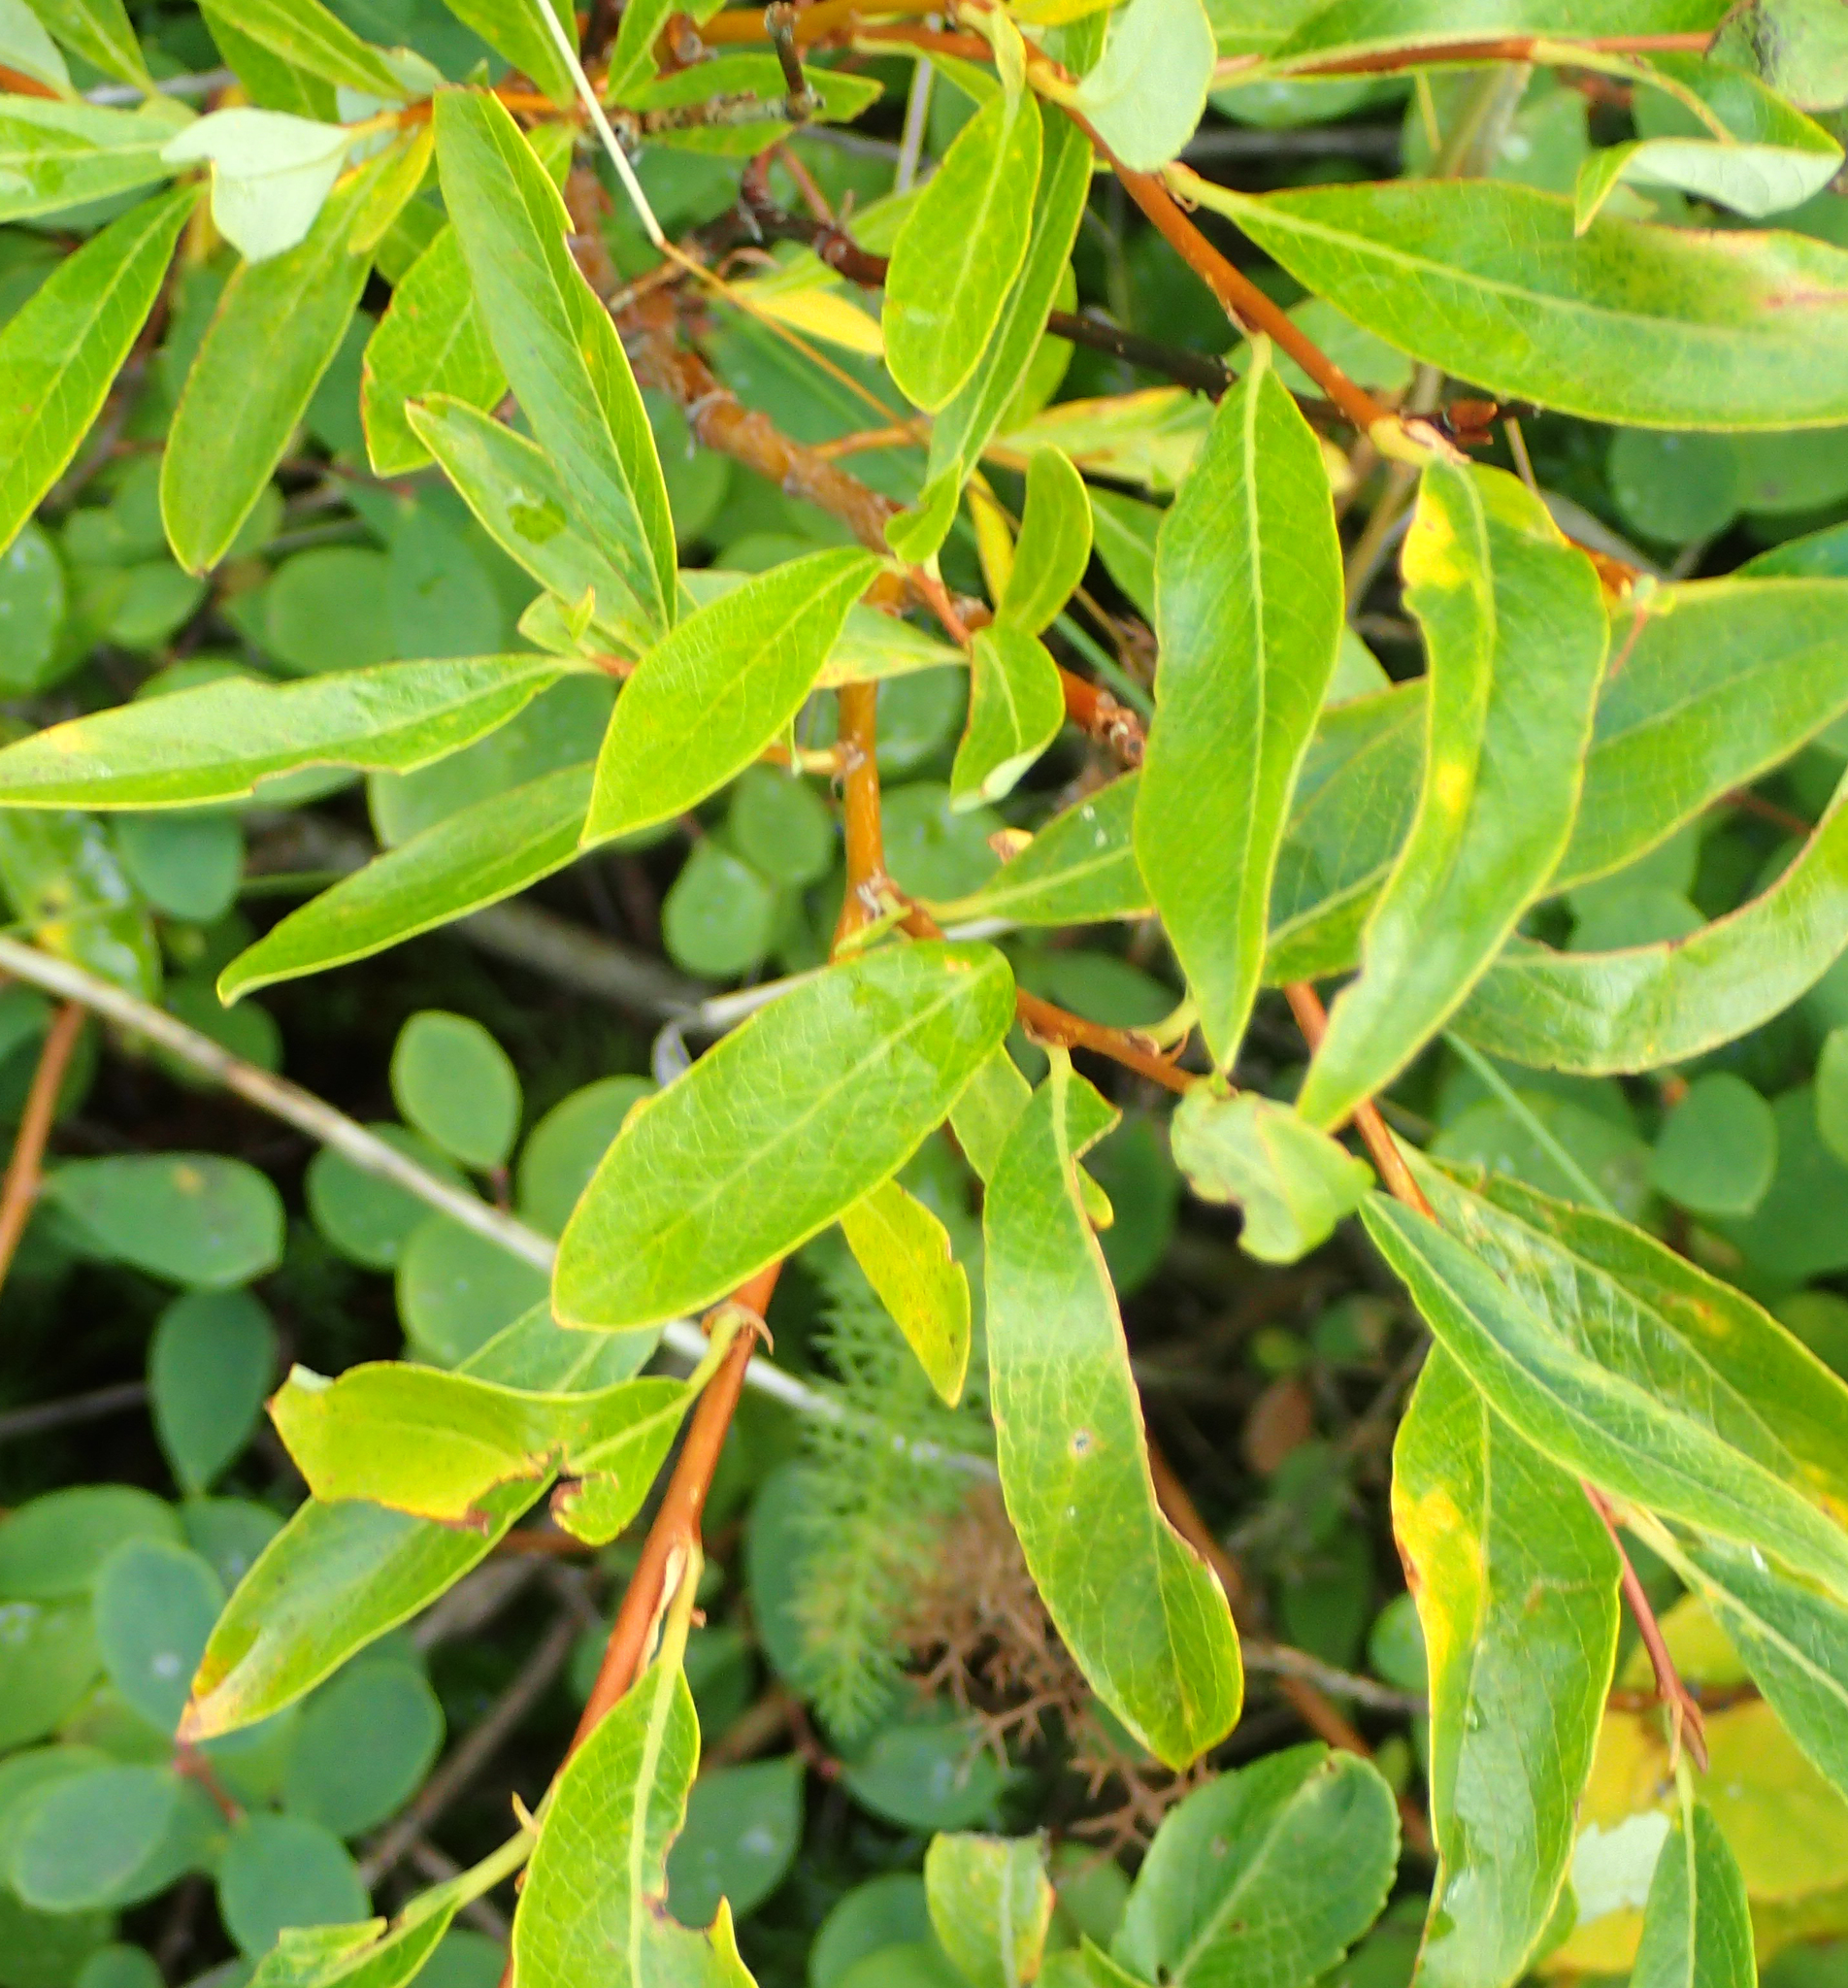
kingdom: Plantae
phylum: Tracheophyta
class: Magnoliopsida
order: Malpighiales
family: Salicaceae
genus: Salix
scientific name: Salix pulchra
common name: Diamond-leaved willow
